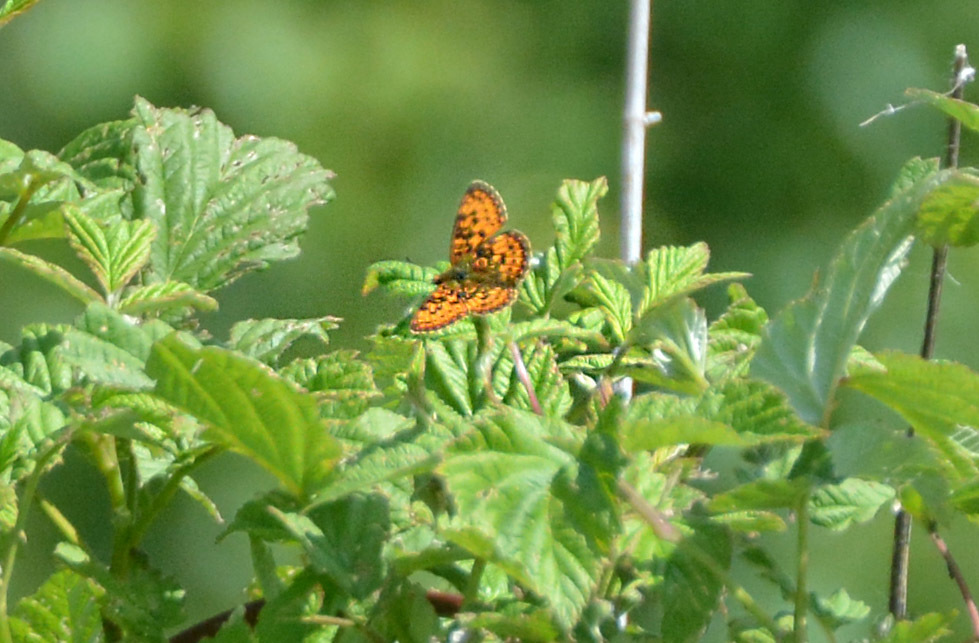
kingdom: Animalia
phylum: Arthropoda
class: Insecta
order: Lepidoptera
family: Nymphalidae
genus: Boloria
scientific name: Boloria selene
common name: Small pearl-bordered fritillary
